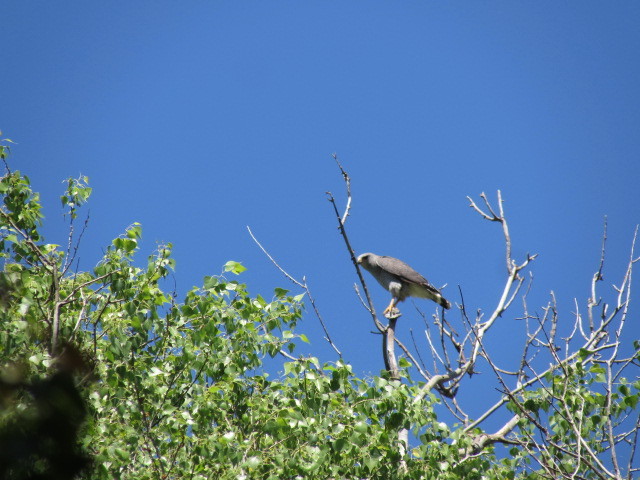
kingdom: Animalia
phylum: Chordata
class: Aves
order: Accipitriformes
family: Accipitridae
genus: Buteo
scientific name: Buteo nitidus
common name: Grey-lined hawk
